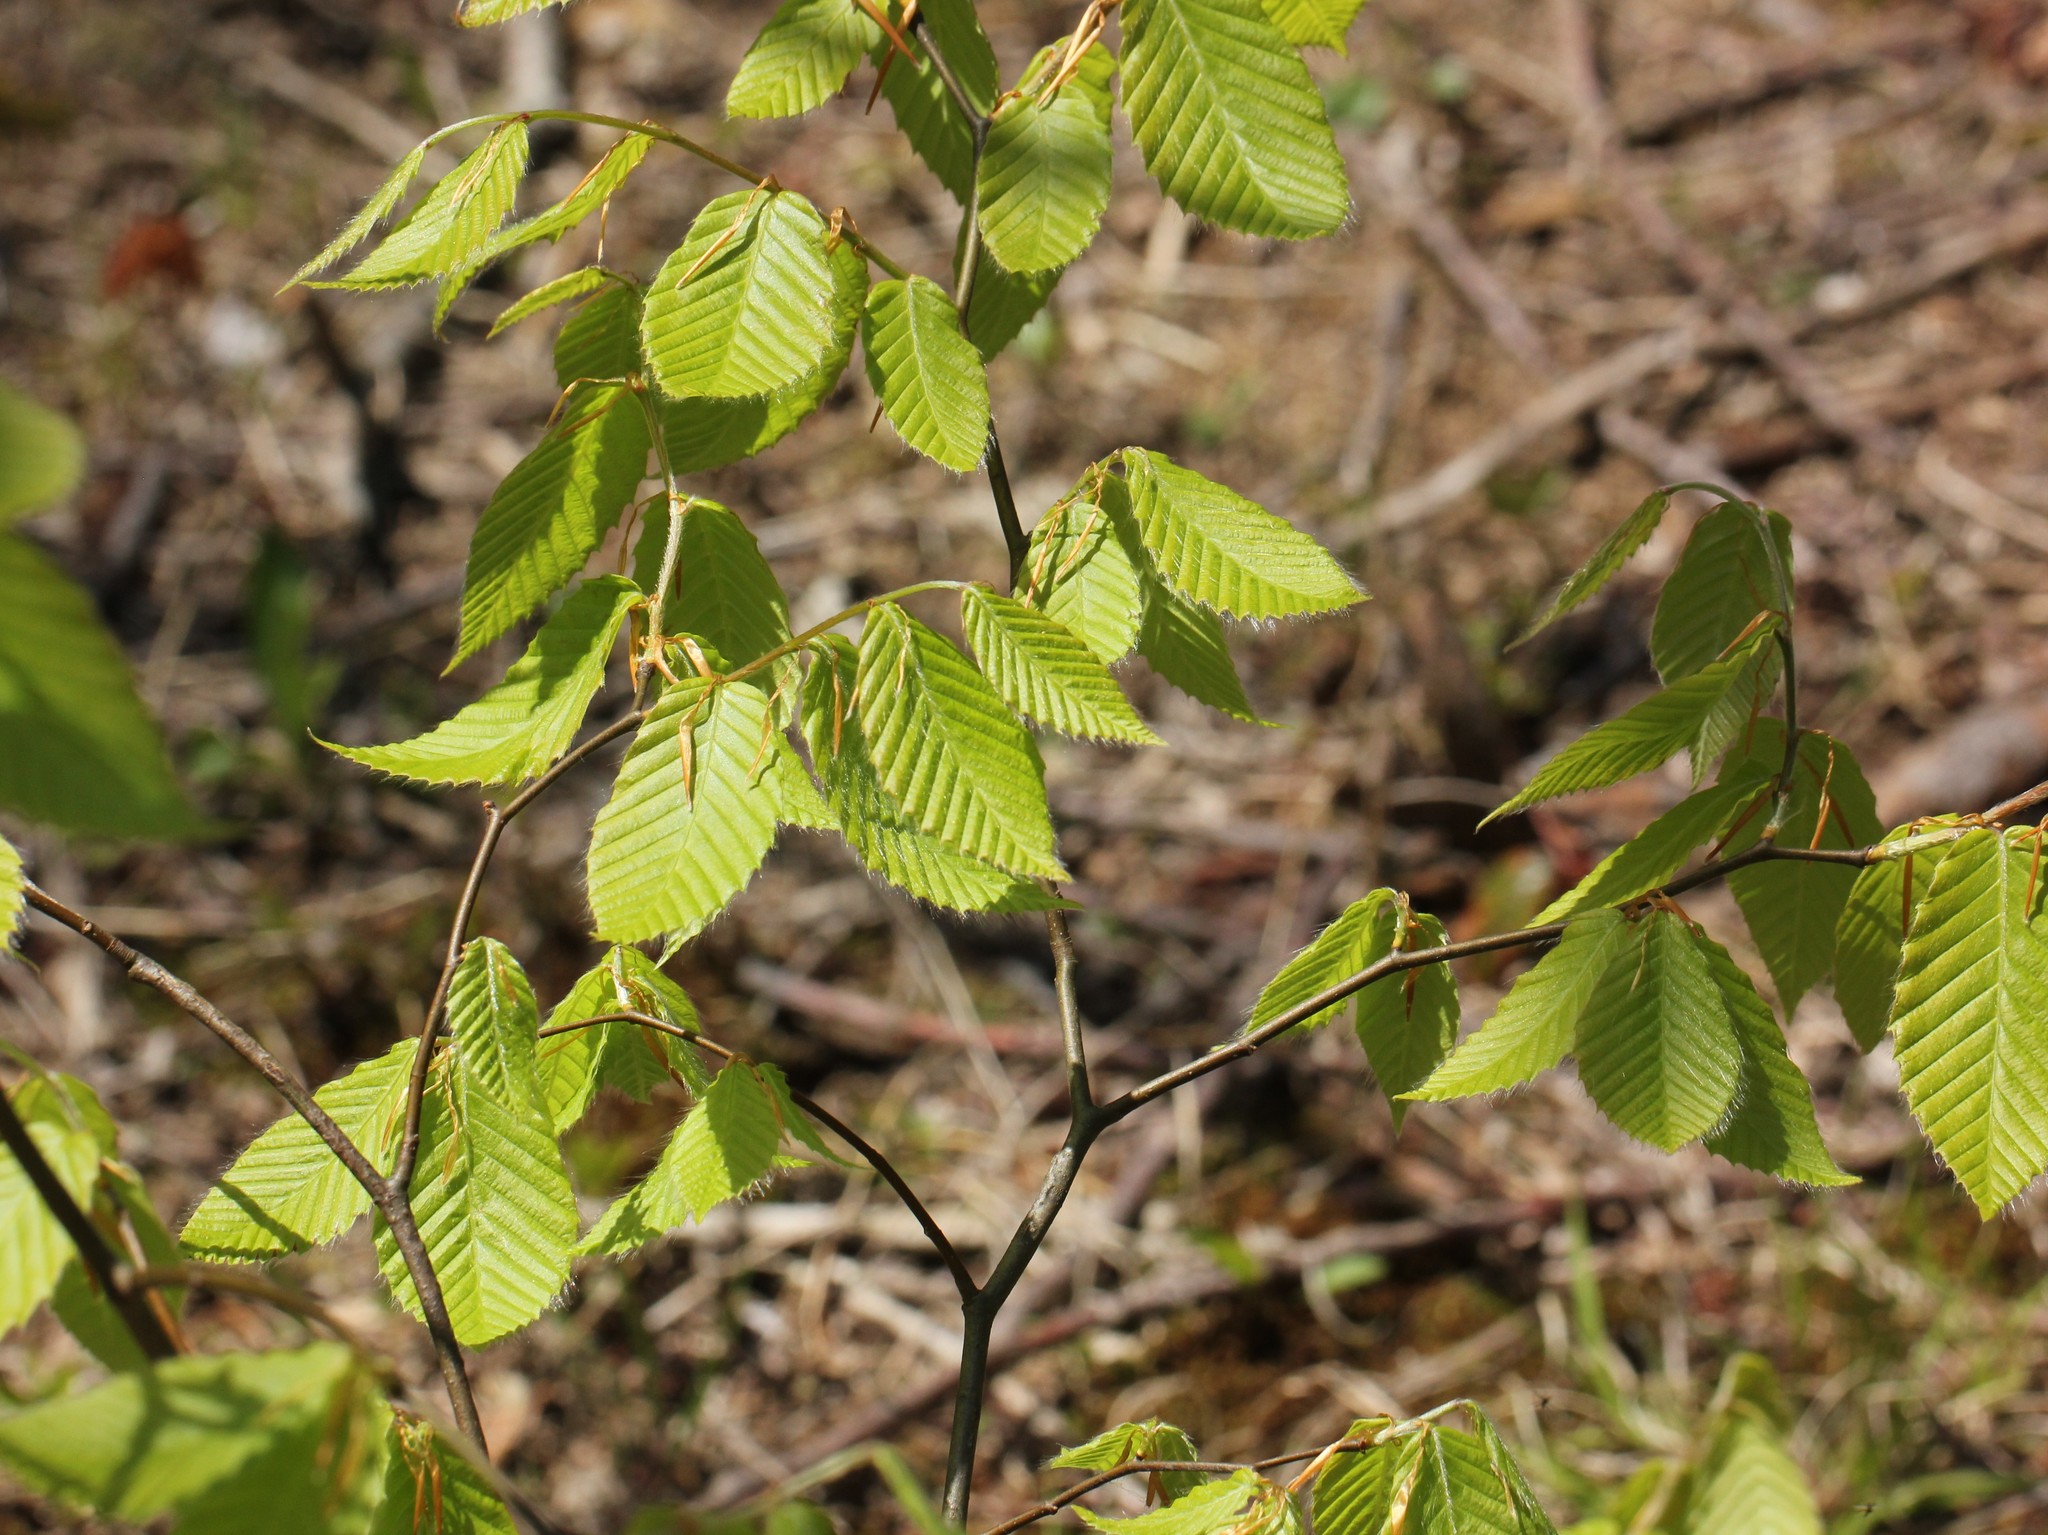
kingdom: Plantae
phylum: Tracheophyta
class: Magnoliopsida
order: Fagales
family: Fagaceae
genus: Fagus
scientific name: Fagus grandifolia
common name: American beech
